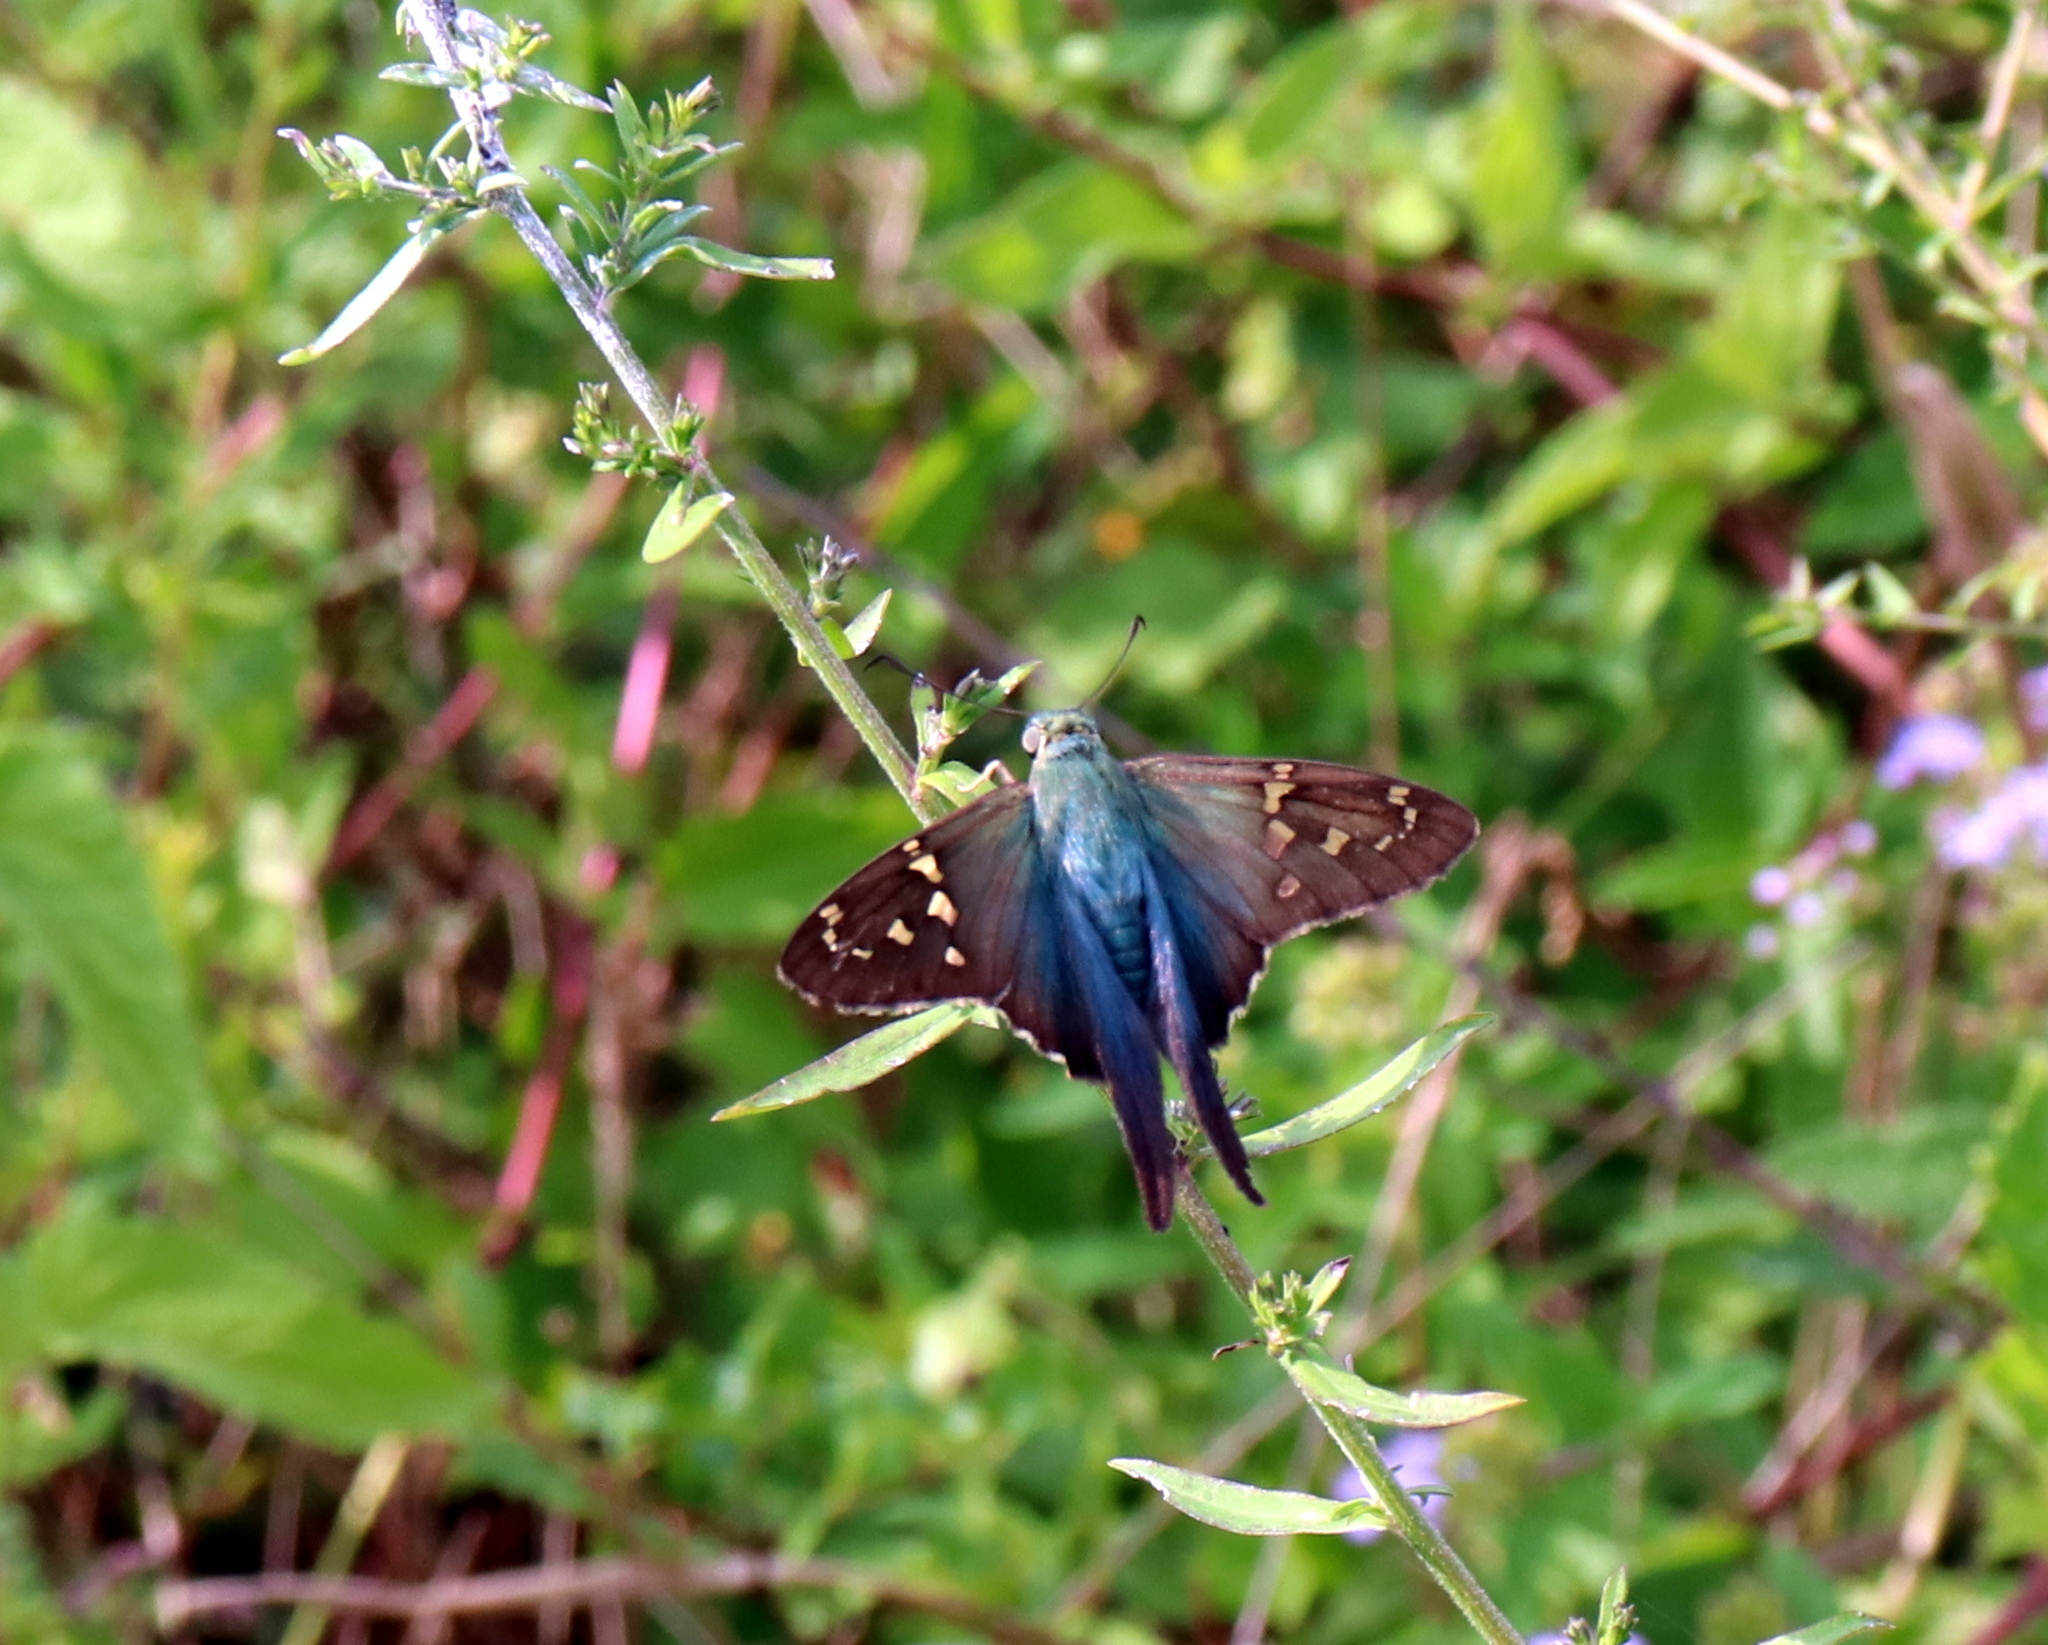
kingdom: Animalia
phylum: Arthropoda
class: Insecta
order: Lepidoptera
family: Hesperiidae
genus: Urbanus
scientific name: Urbanus proteus
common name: Long-tailed skipper
